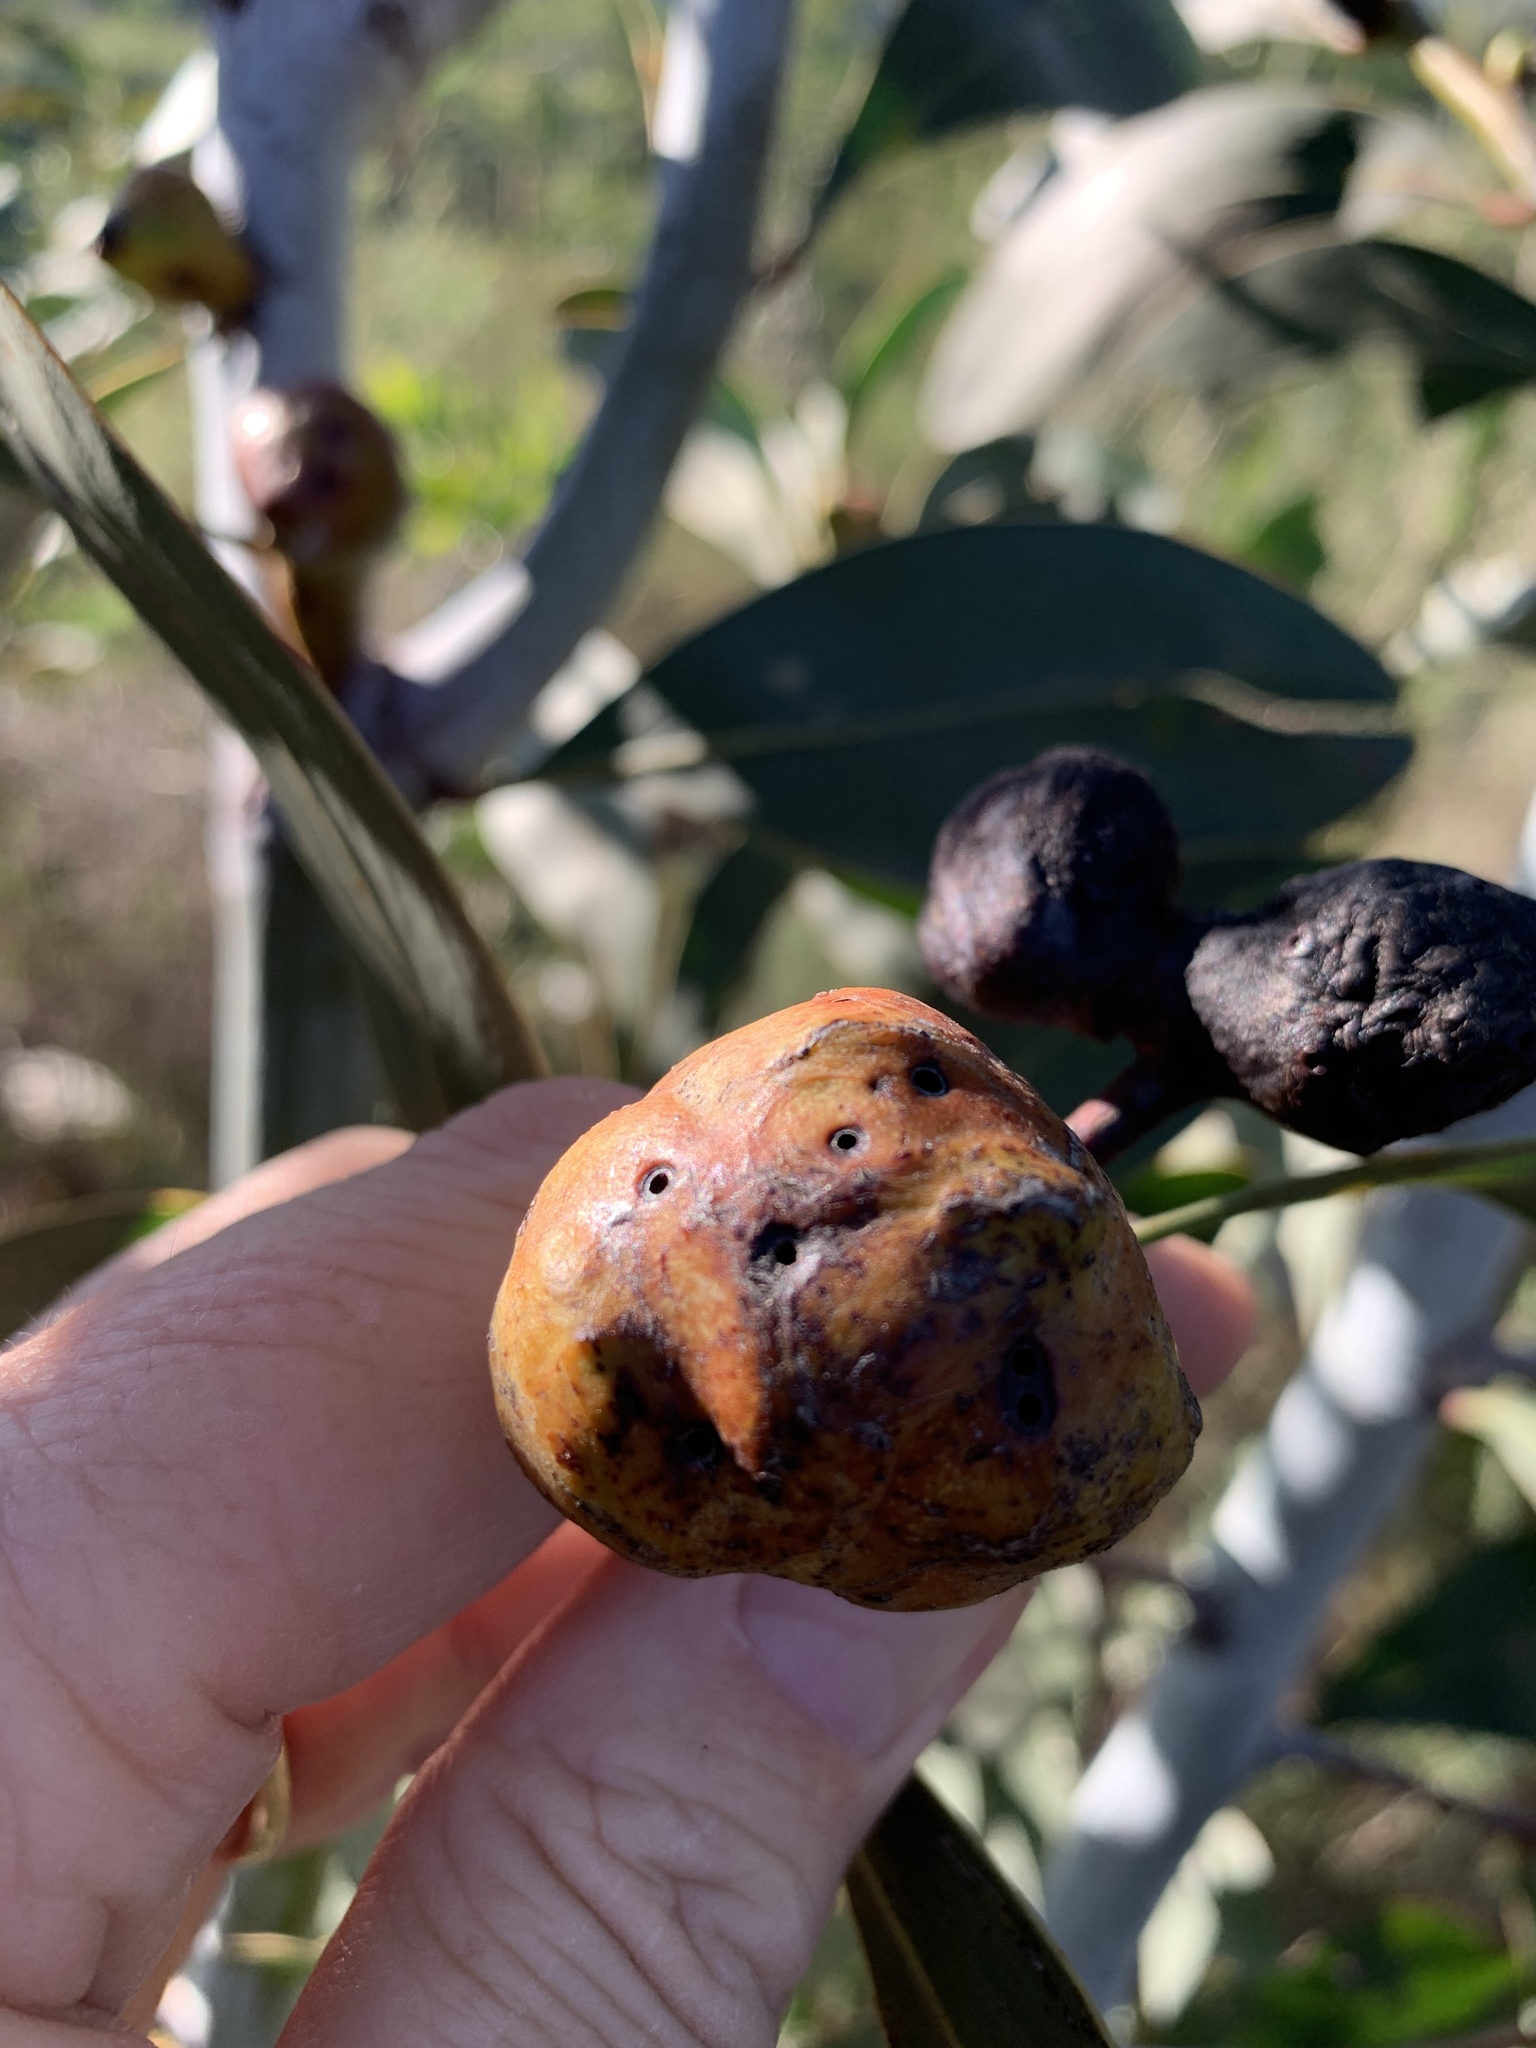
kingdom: Animalia
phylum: Arthropoda
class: Insecta
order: Hymenoptera
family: Pteromalidae
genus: Trichilogaster
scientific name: Trichilogaster signiventris
